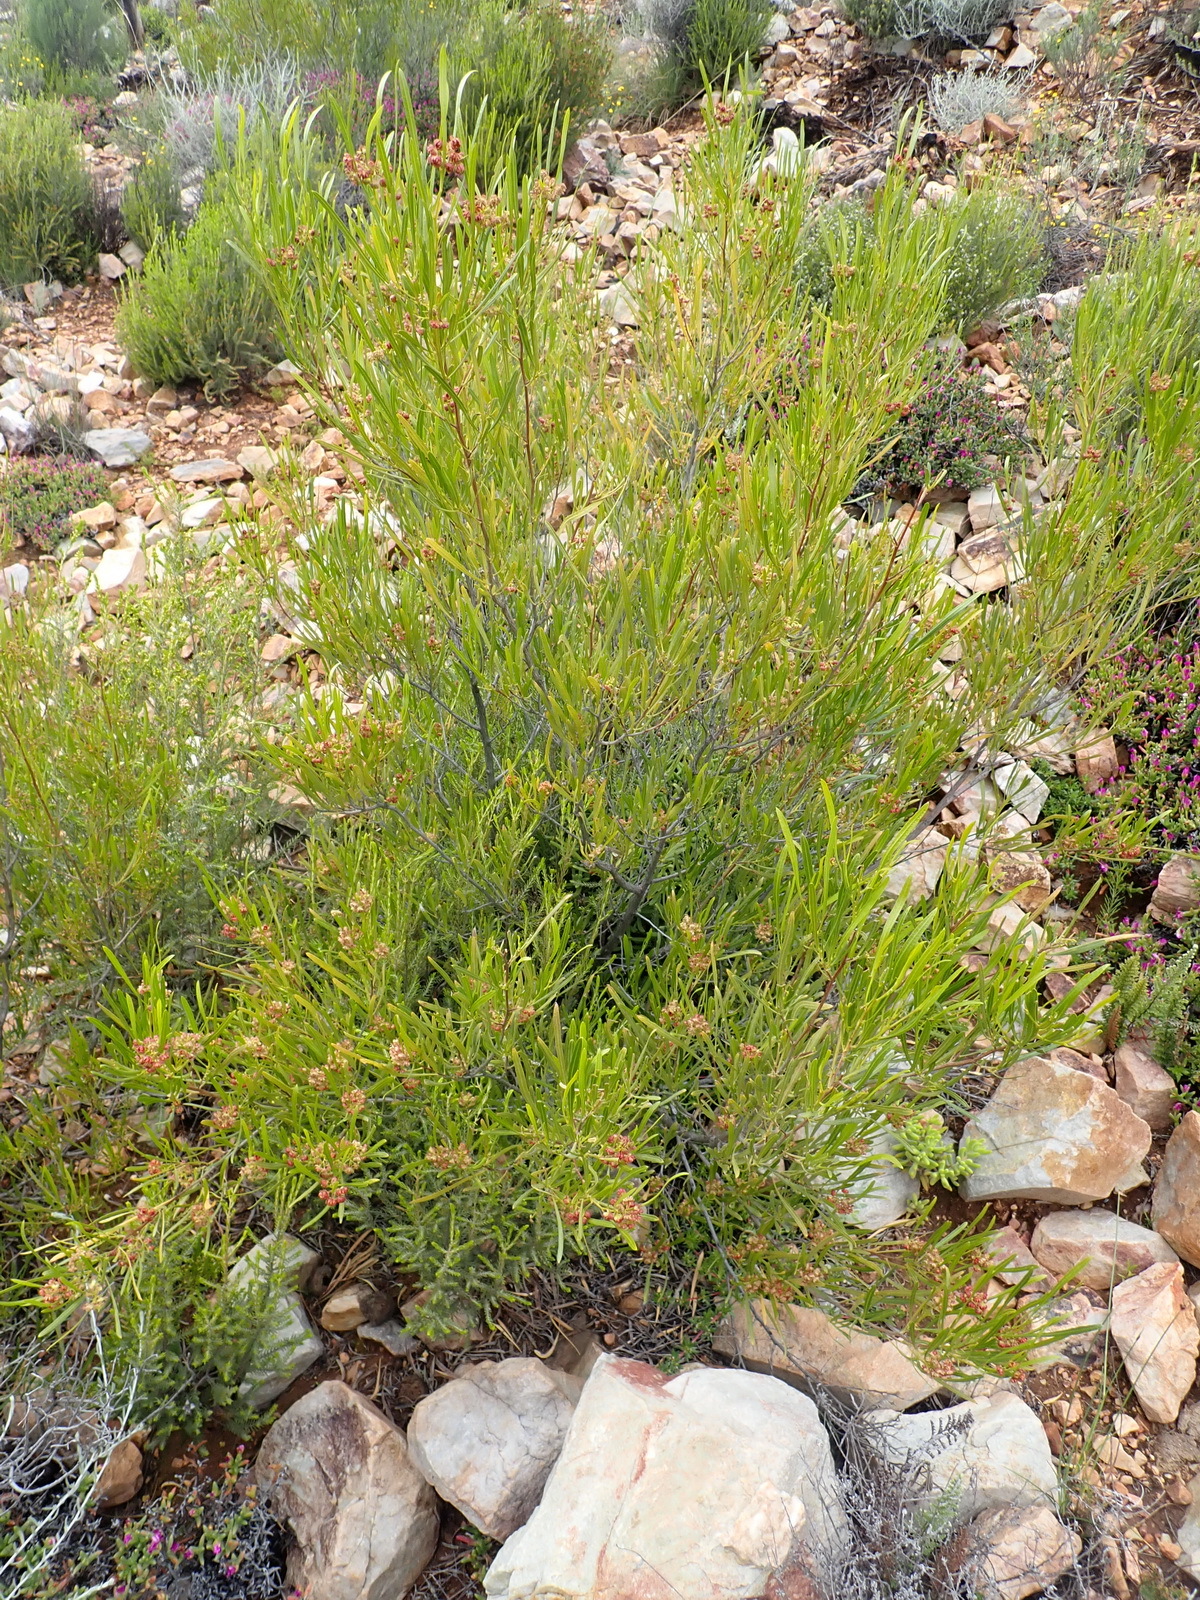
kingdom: Plantae
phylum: Tracheophyta
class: Magnoliopsida
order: Sapindales
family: Sapindaceae
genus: Dodonaea
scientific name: Dodonaea viscosa
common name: Hopbush
